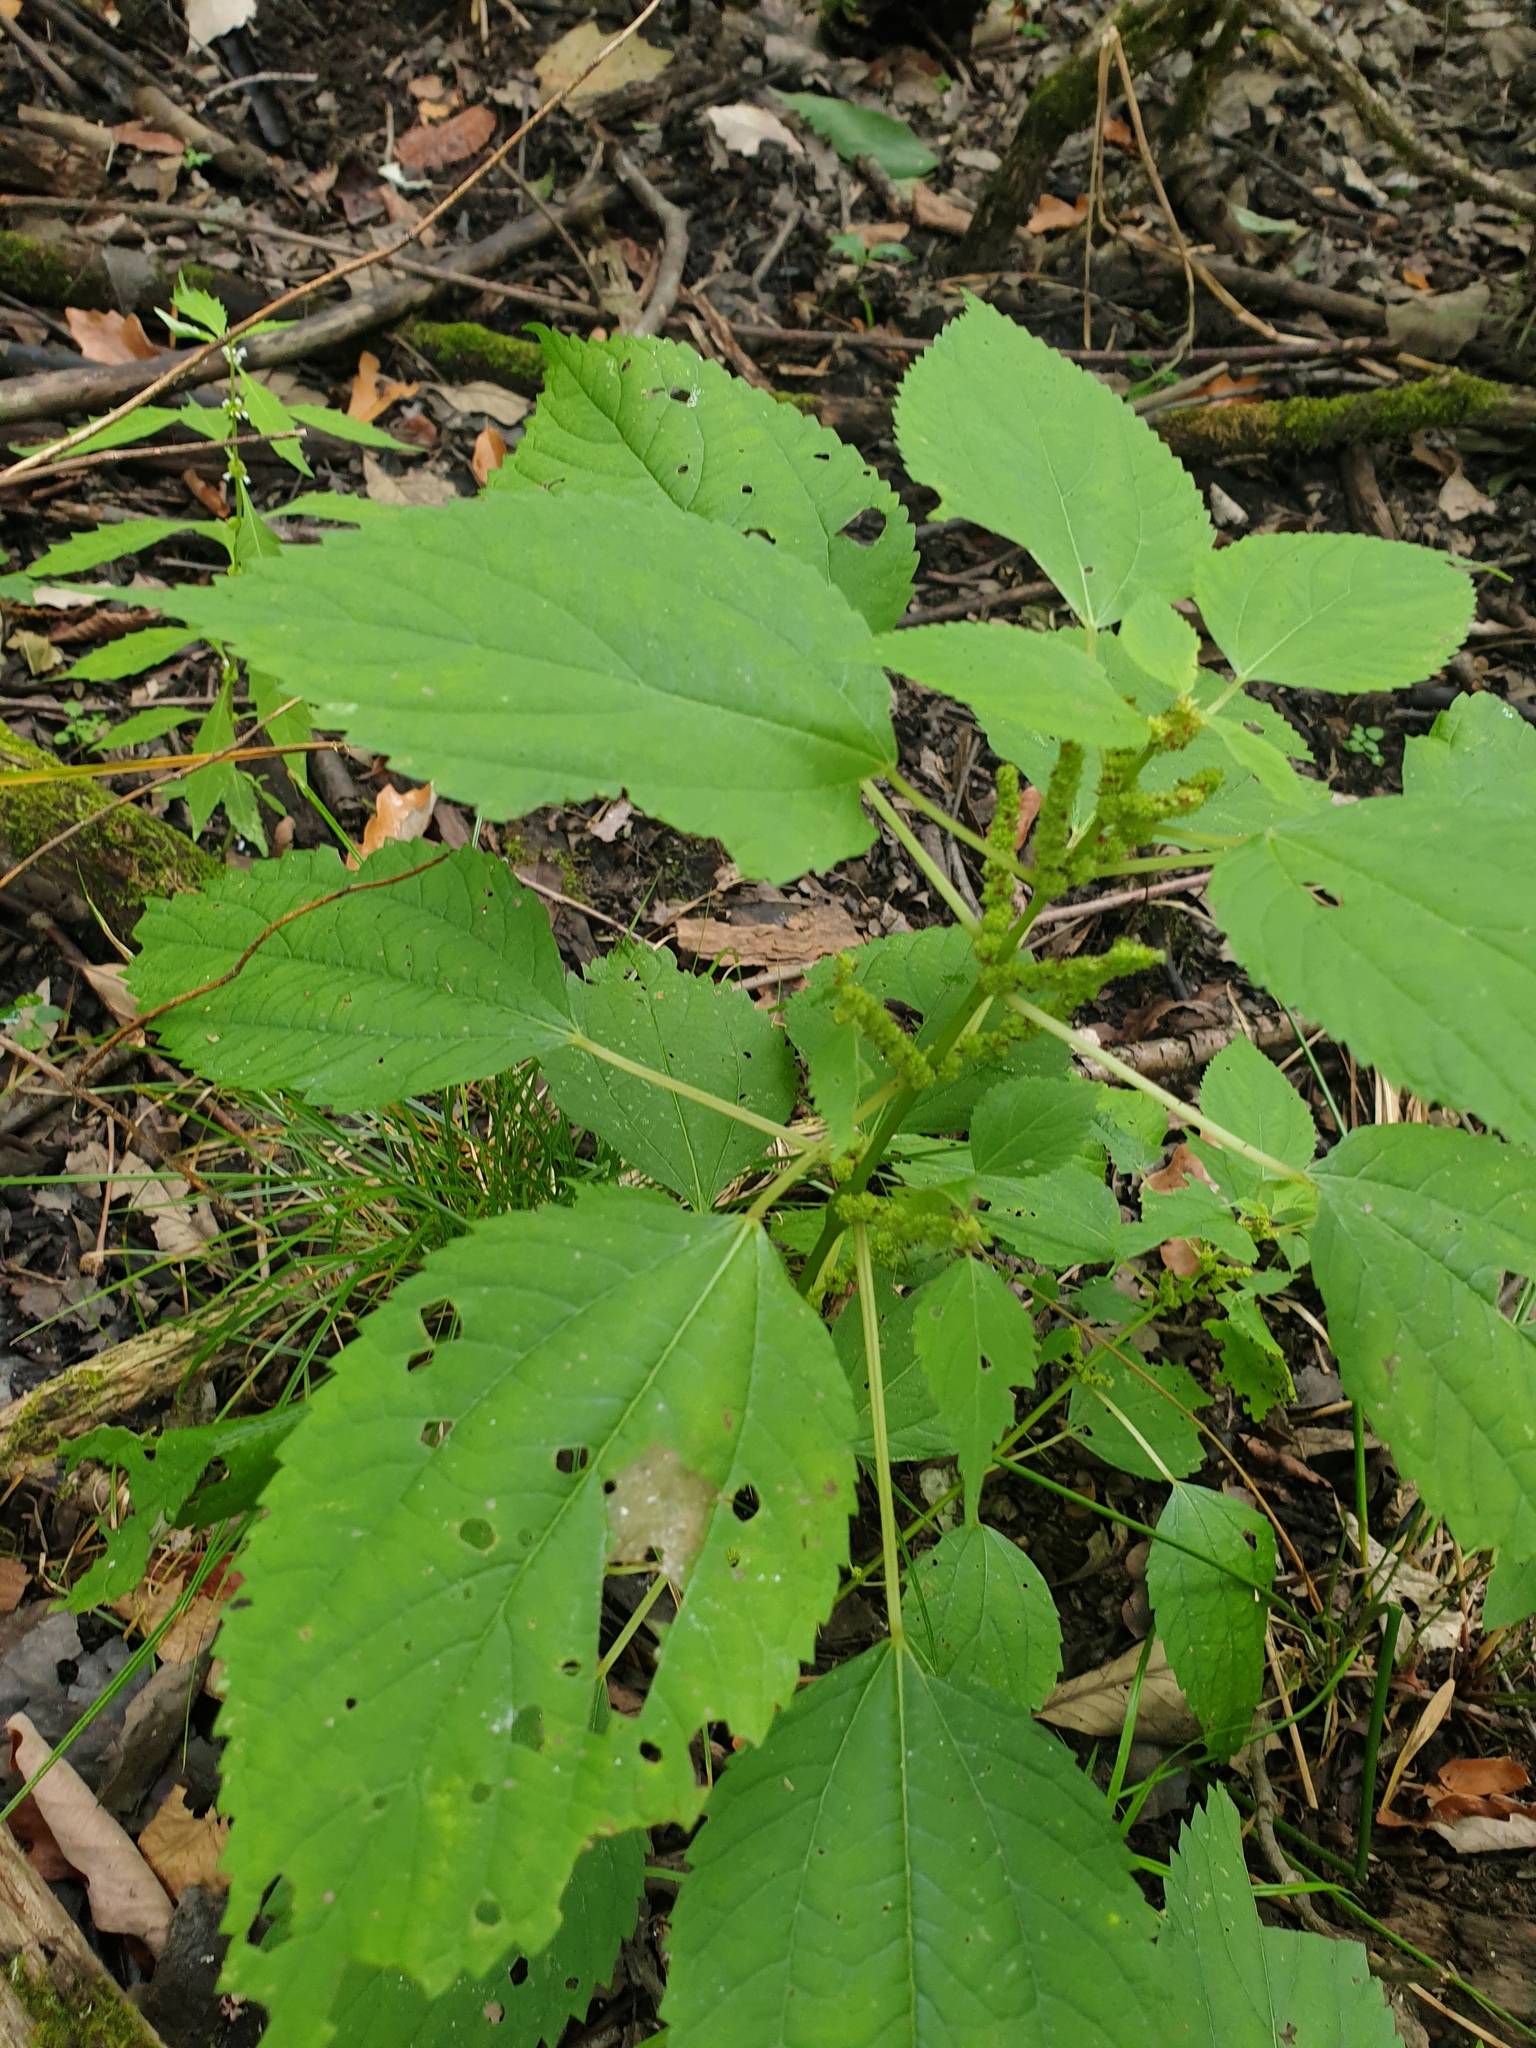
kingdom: Plantae
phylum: Tracheophyta
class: Magnoliopsida
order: Rosales
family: Urticaceae
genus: Boehmeria
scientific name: Boehmeria cylindrica
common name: Bog-hemp
